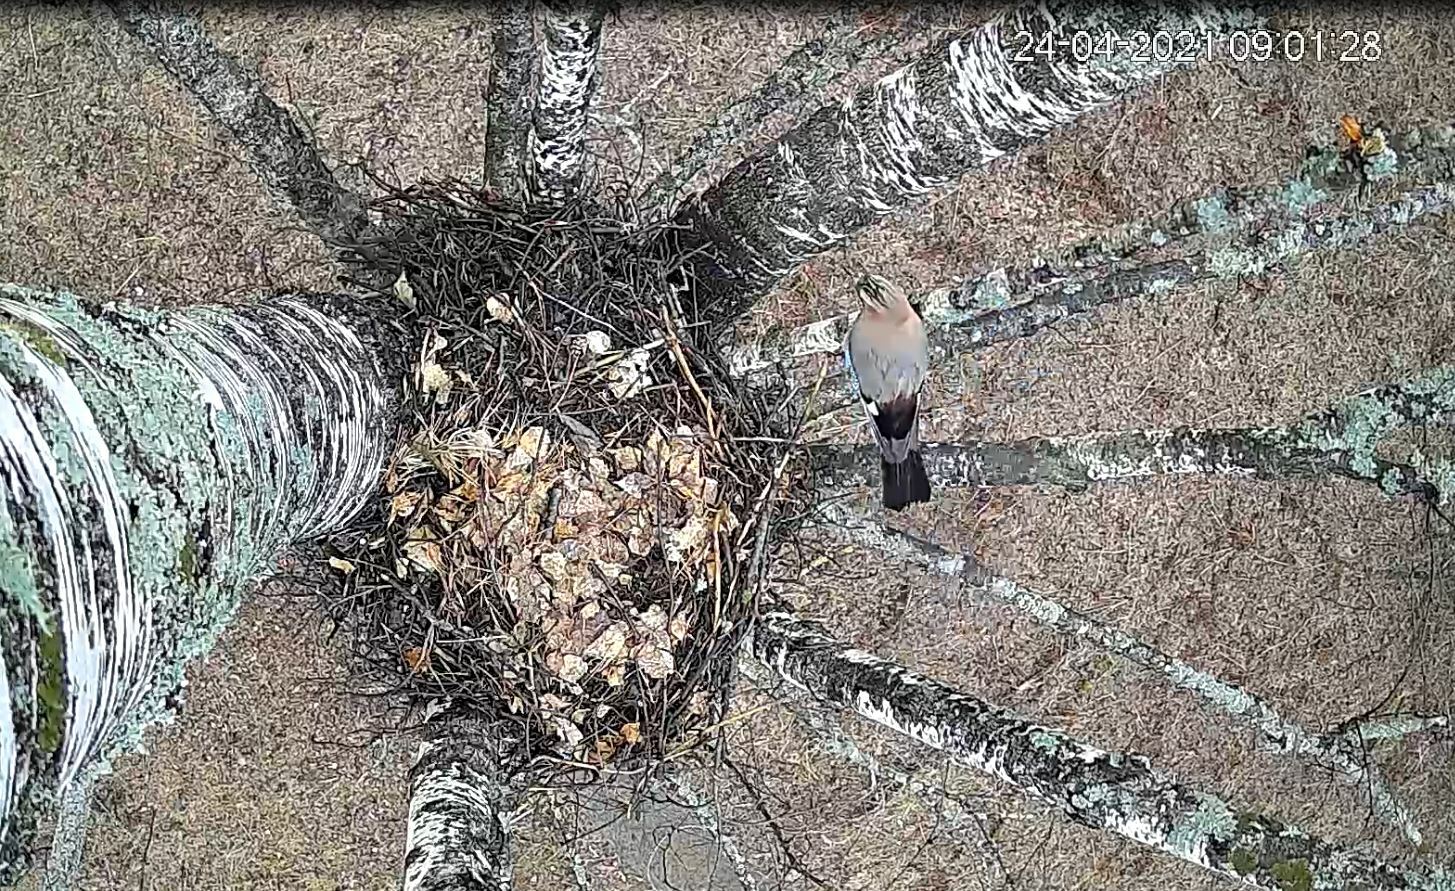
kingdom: Animalia
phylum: Chordata
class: Aves
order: Passeriformes
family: Corvidae
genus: Garrulus
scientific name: Garrulus glandarius
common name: Eurasian jay
